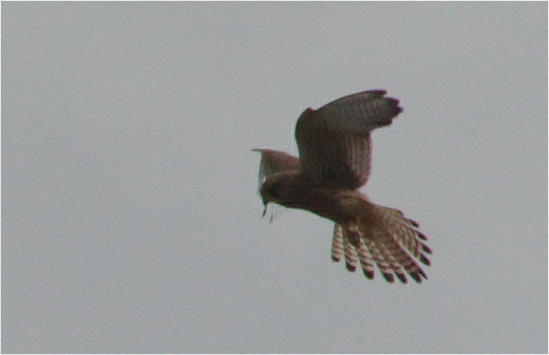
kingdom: Animalia
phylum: Chordata
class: Aves
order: Falconiformes
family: Falconidae
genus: Falco
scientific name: Falco tinnunculus
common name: Common kestrel
